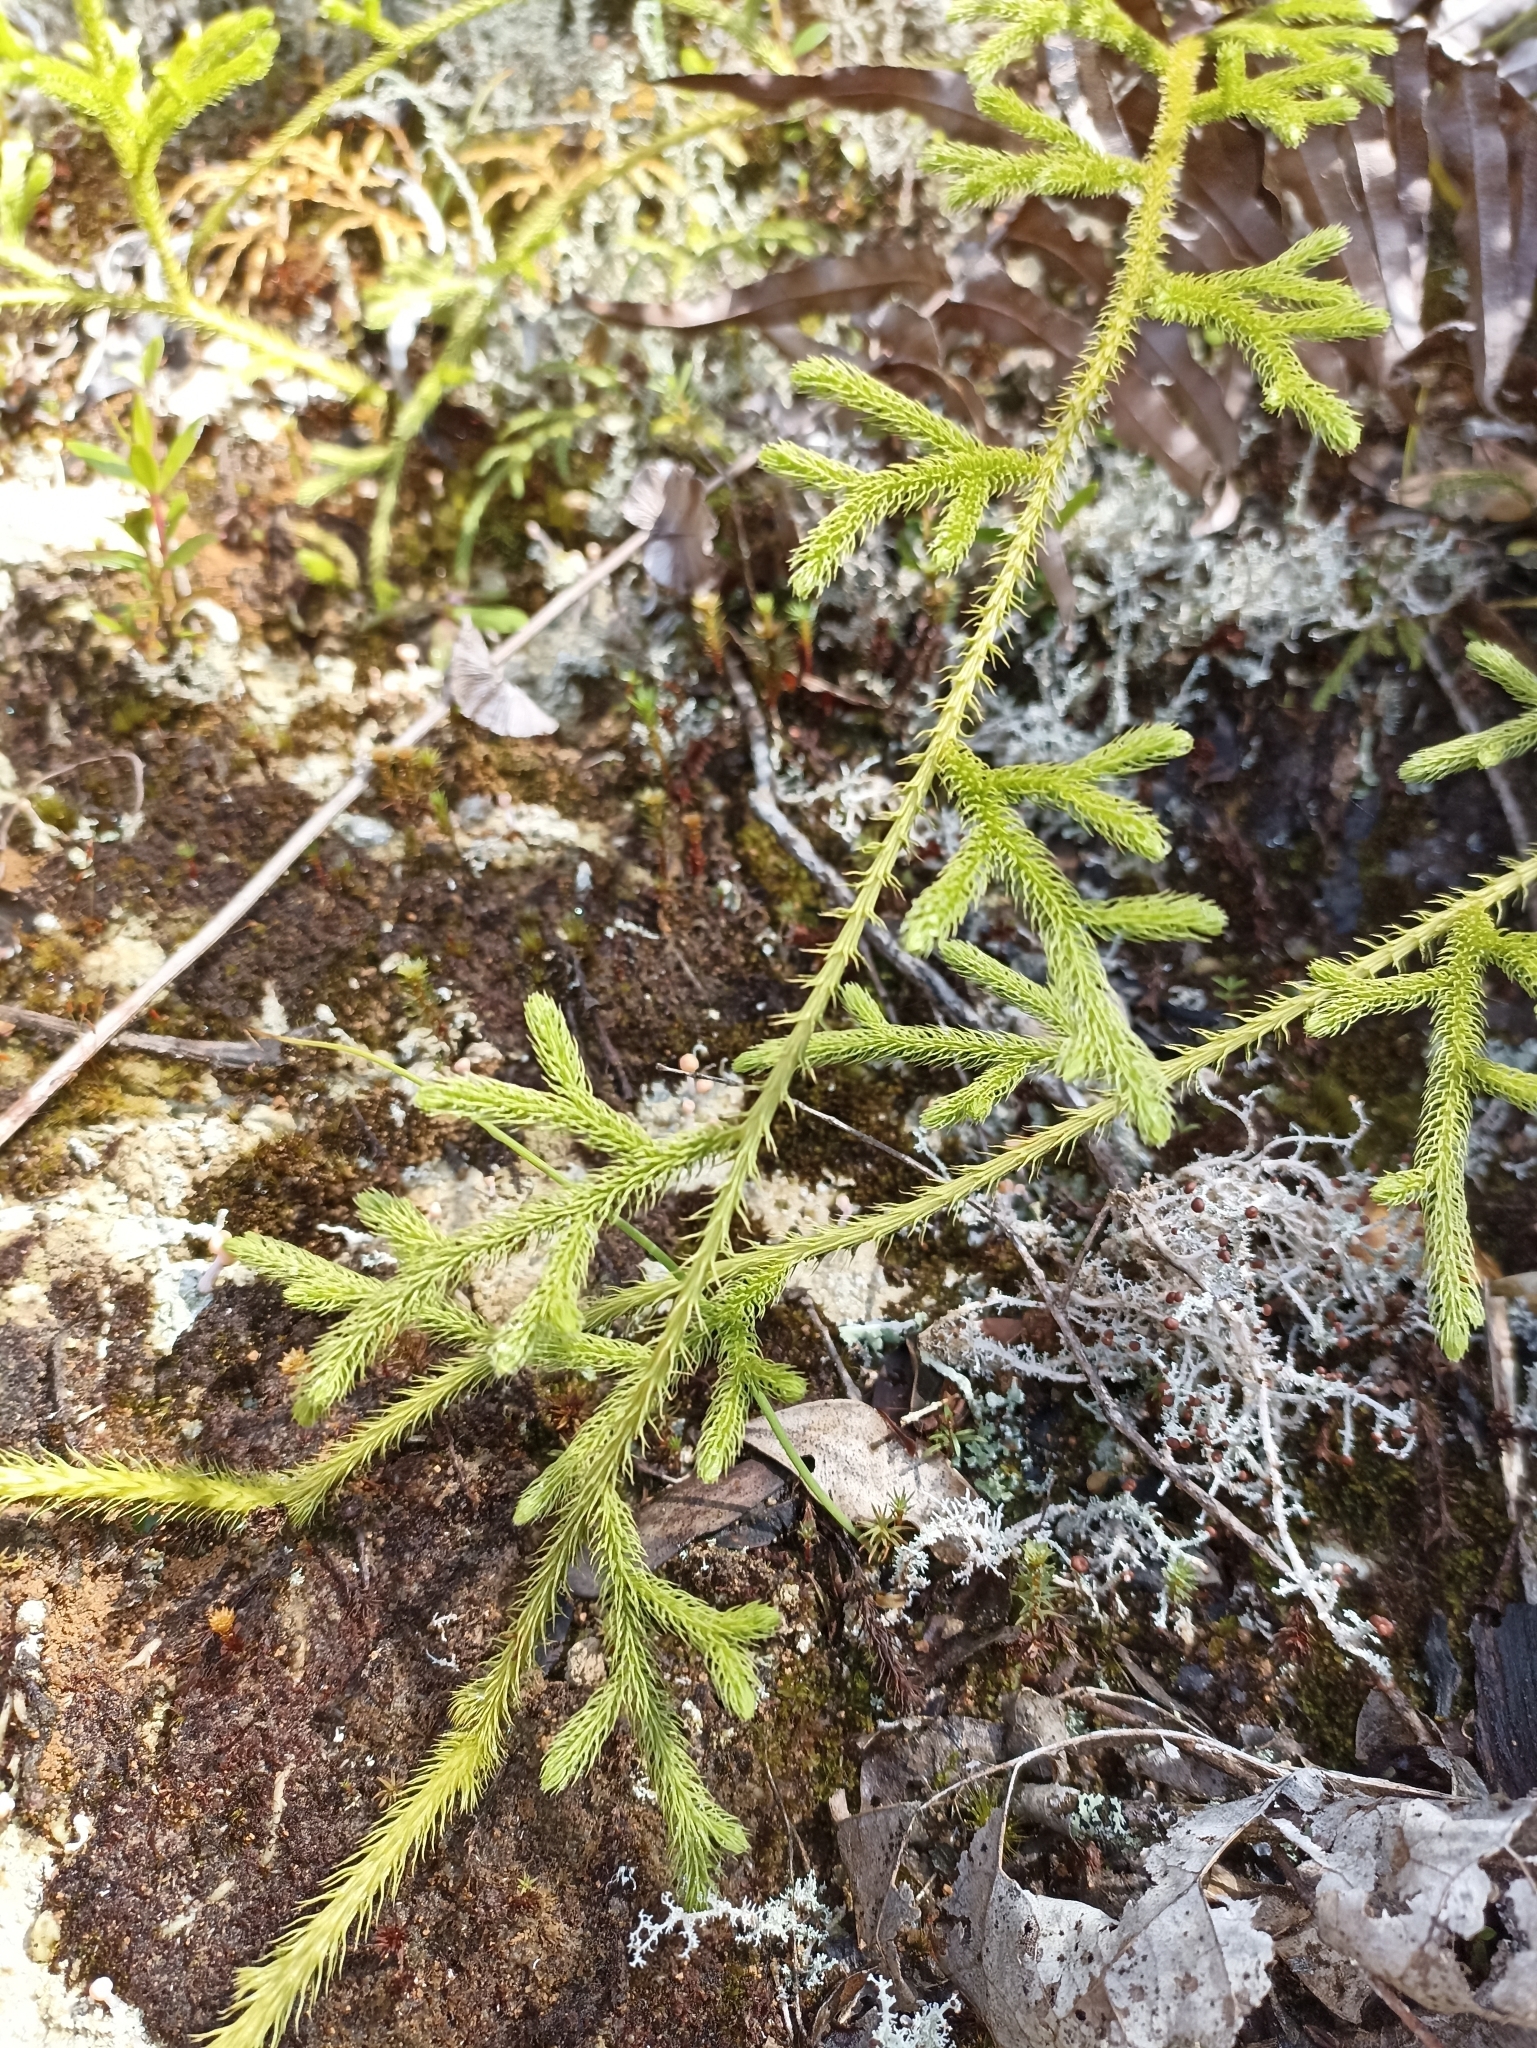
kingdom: Plantae
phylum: Tracheophyta
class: Lycopodiopsida
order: Lycopodiales
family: Lycopodiaceae
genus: Palhinhaea
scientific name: Palhinhaea cernua
